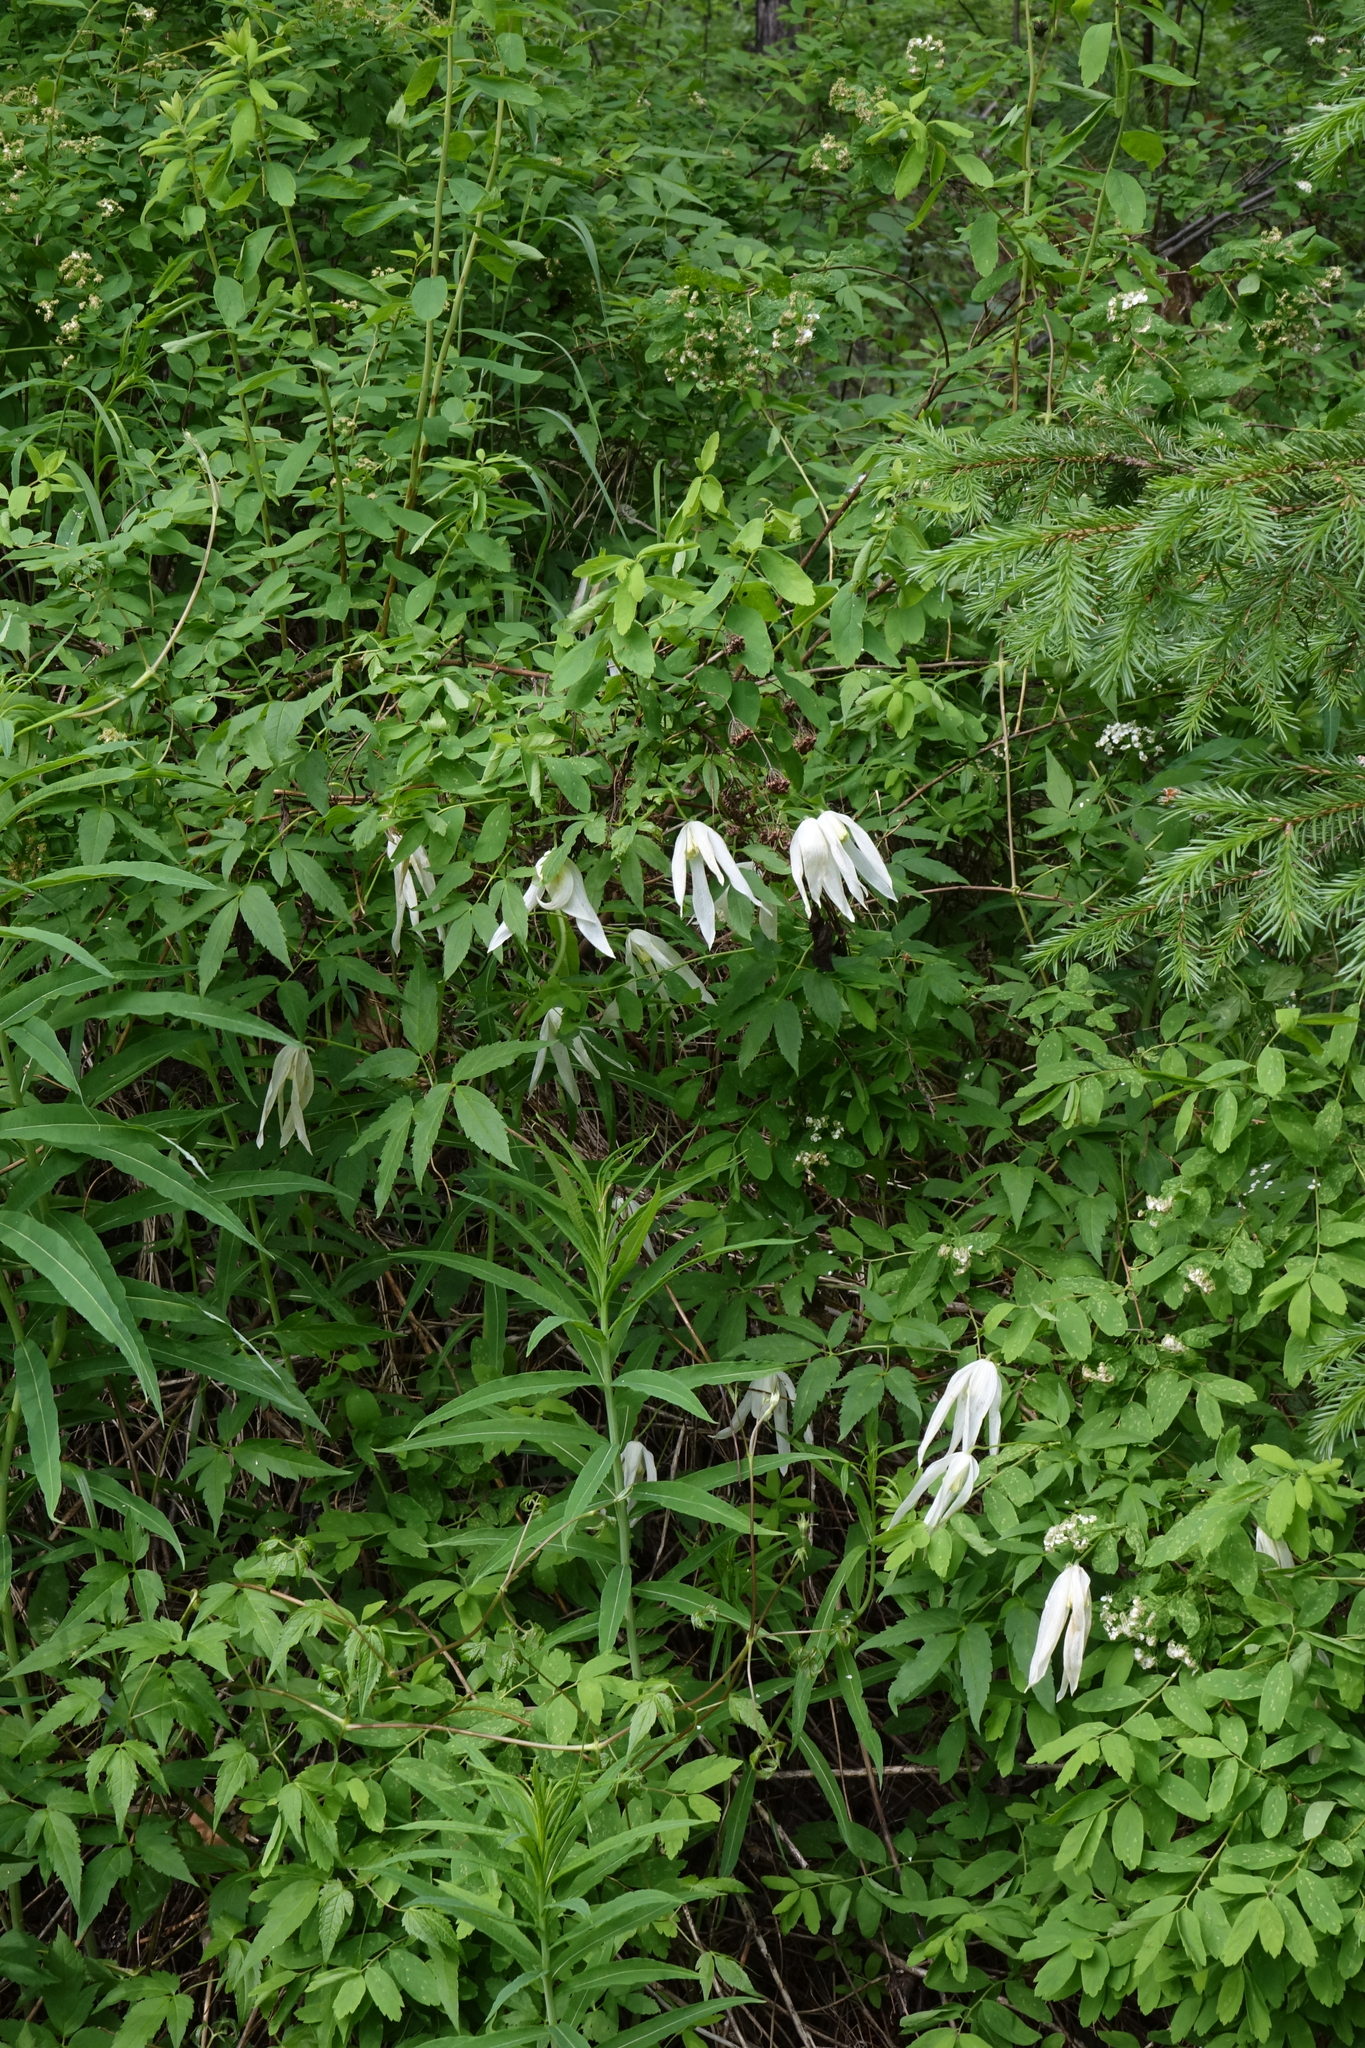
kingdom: Plantae
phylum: Tracheophyta
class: Magnoliopsida
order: Ranunculales
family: Ranunculaceae
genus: Clematis
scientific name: Clematis sibirica
